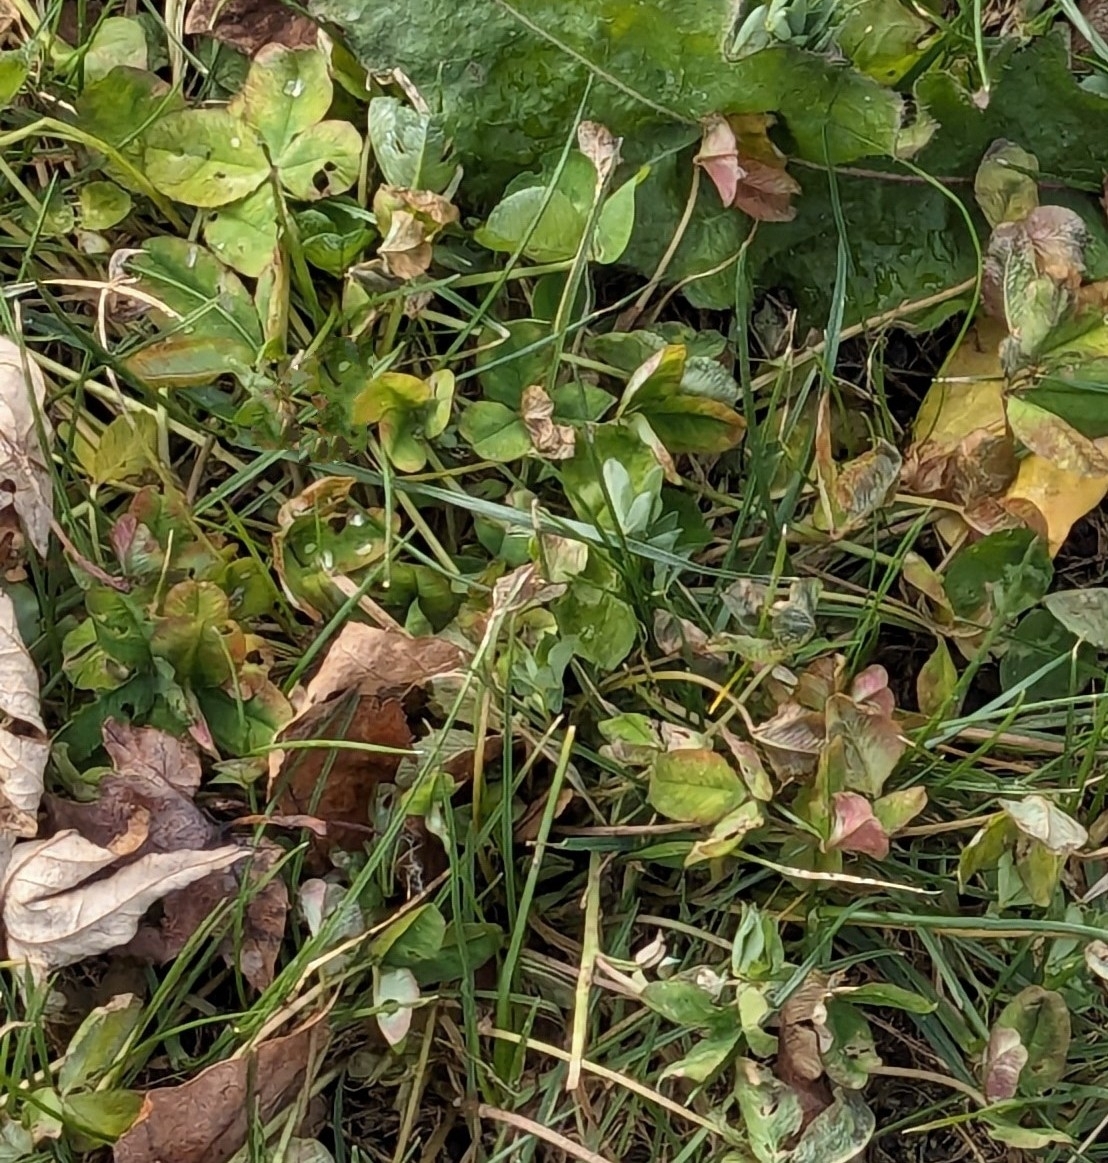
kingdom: Plantae
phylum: Tracheophyta
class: Magnoliopsida
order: Fabales
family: Fabaceae
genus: Trifolium
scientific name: Trifolium repens
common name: White clover
